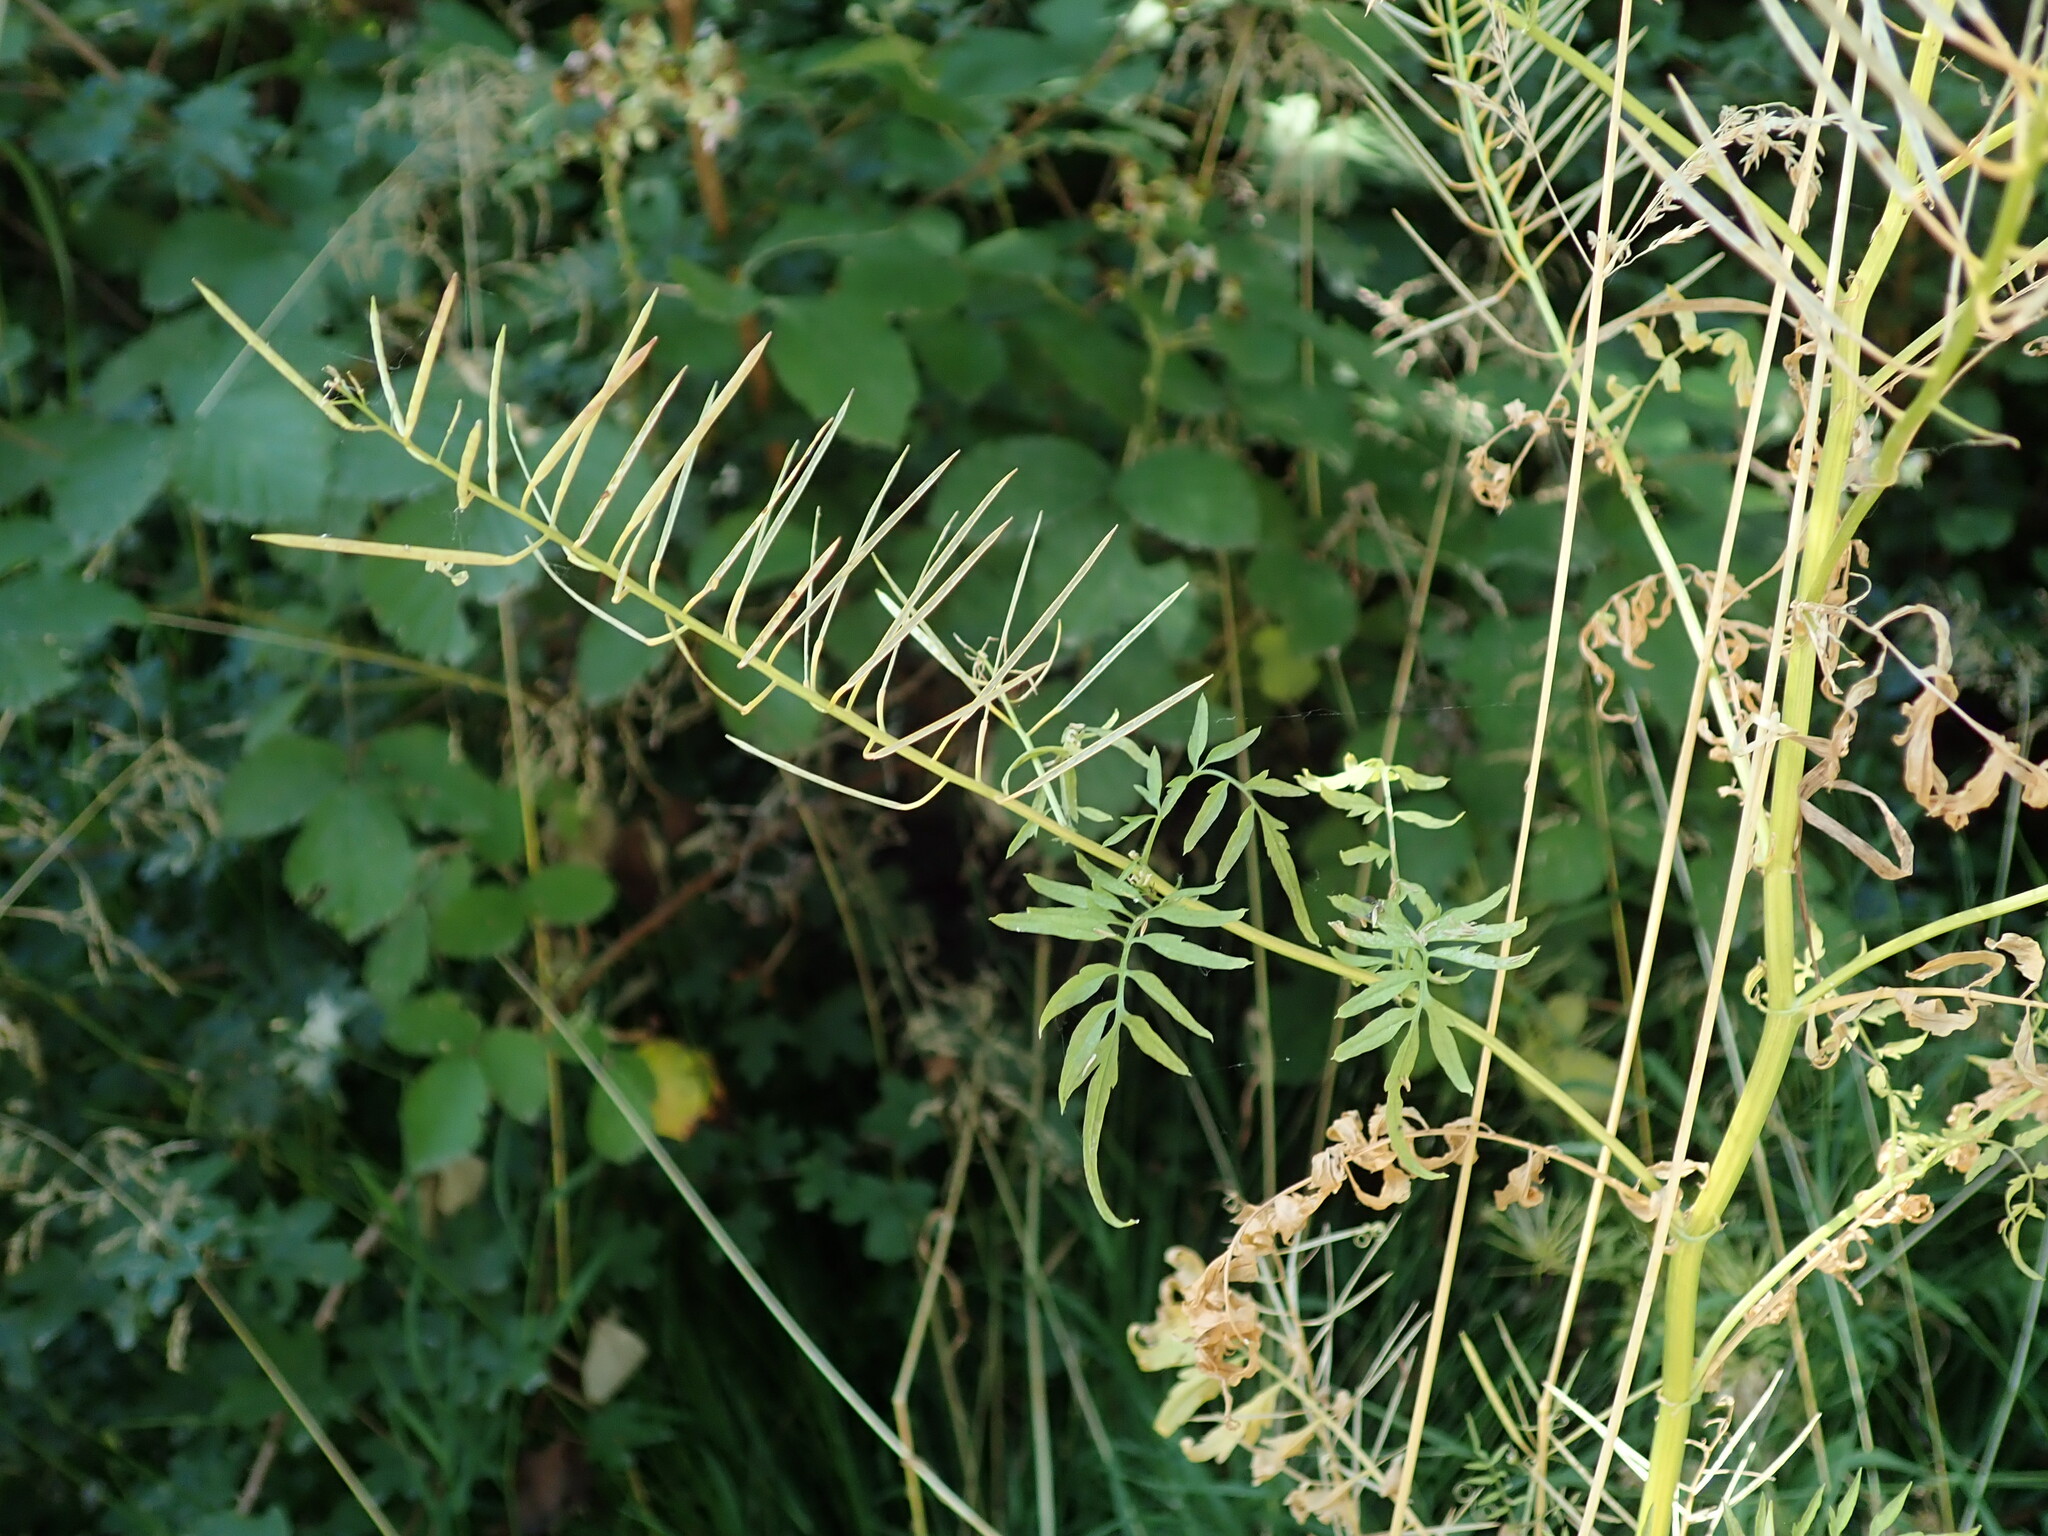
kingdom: Plantae
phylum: Tracheophyta
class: Magnoliopsida
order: Brassicales
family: Brassicaceae
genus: Cardamine
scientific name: Cardamine impatiens
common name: Narrow-leaved bitter-cress
